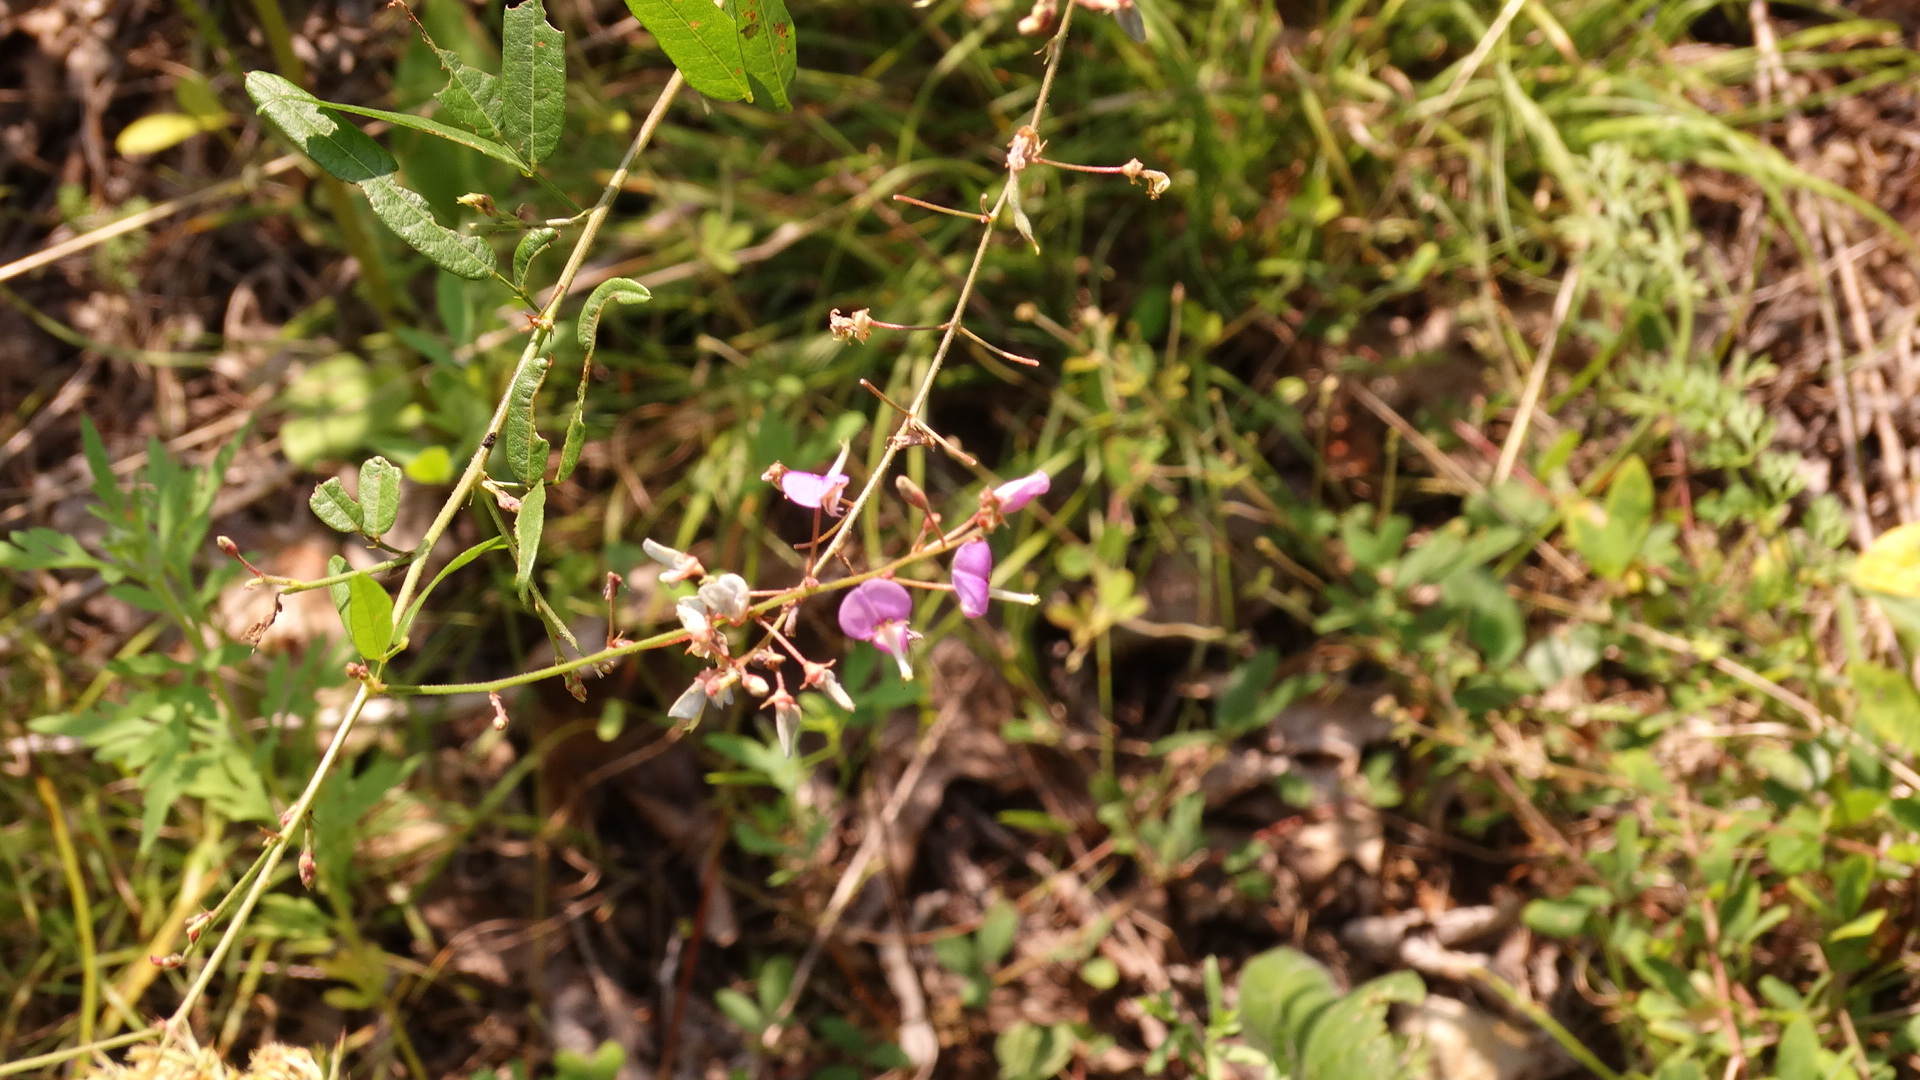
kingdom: Plantae
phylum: Tracheophyta
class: Magnoliopsida
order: Fabales
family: Fabaceae
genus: Desmodium
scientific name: Desmodium paniculatum
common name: Panicled tick-clover
